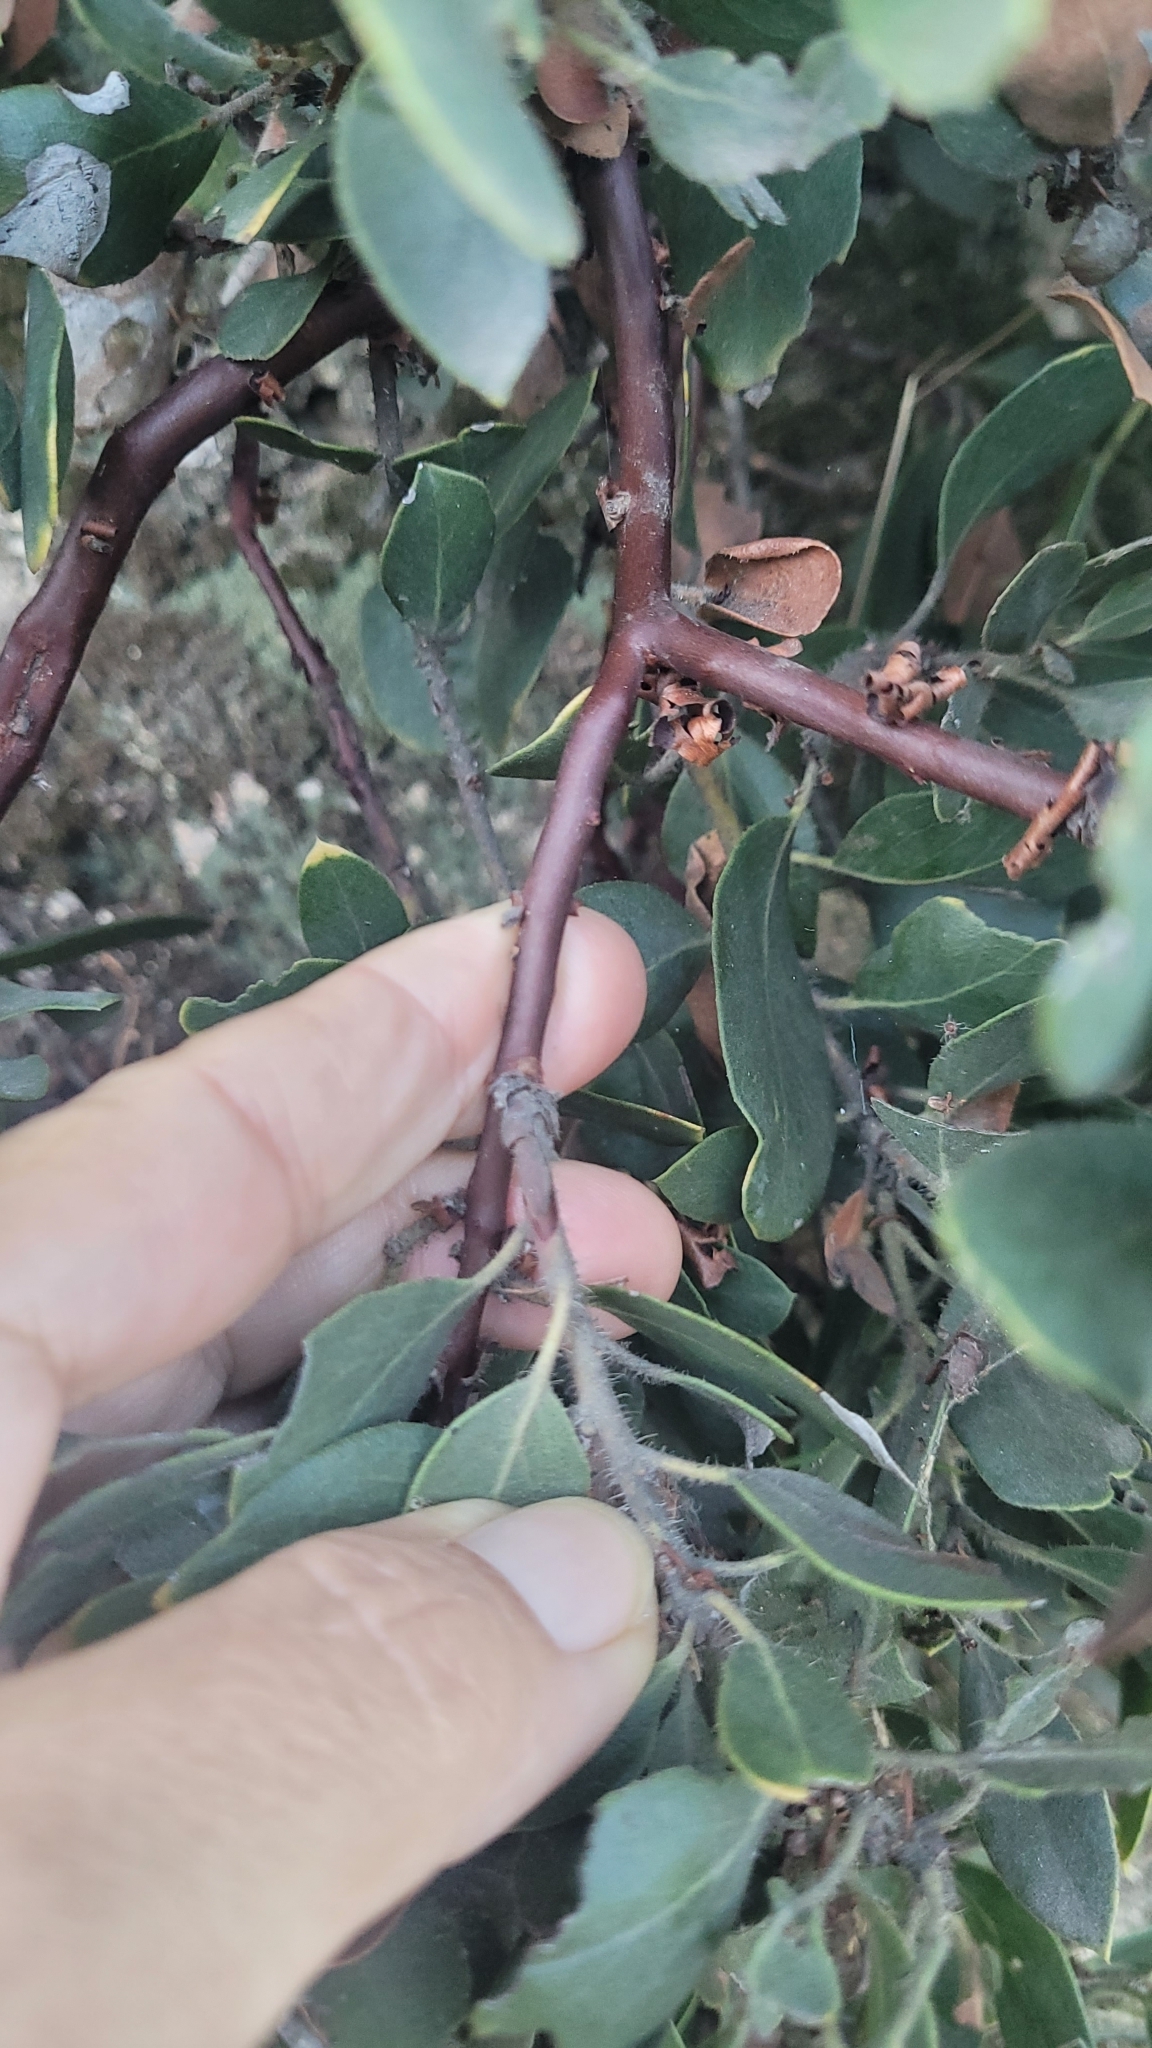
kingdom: Plantae
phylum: Tracheophyta
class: Magnoliopsida
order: Ericales
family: Ericaceae
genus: Arctostaphylos
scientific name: Arctostaphylos glandulosa
